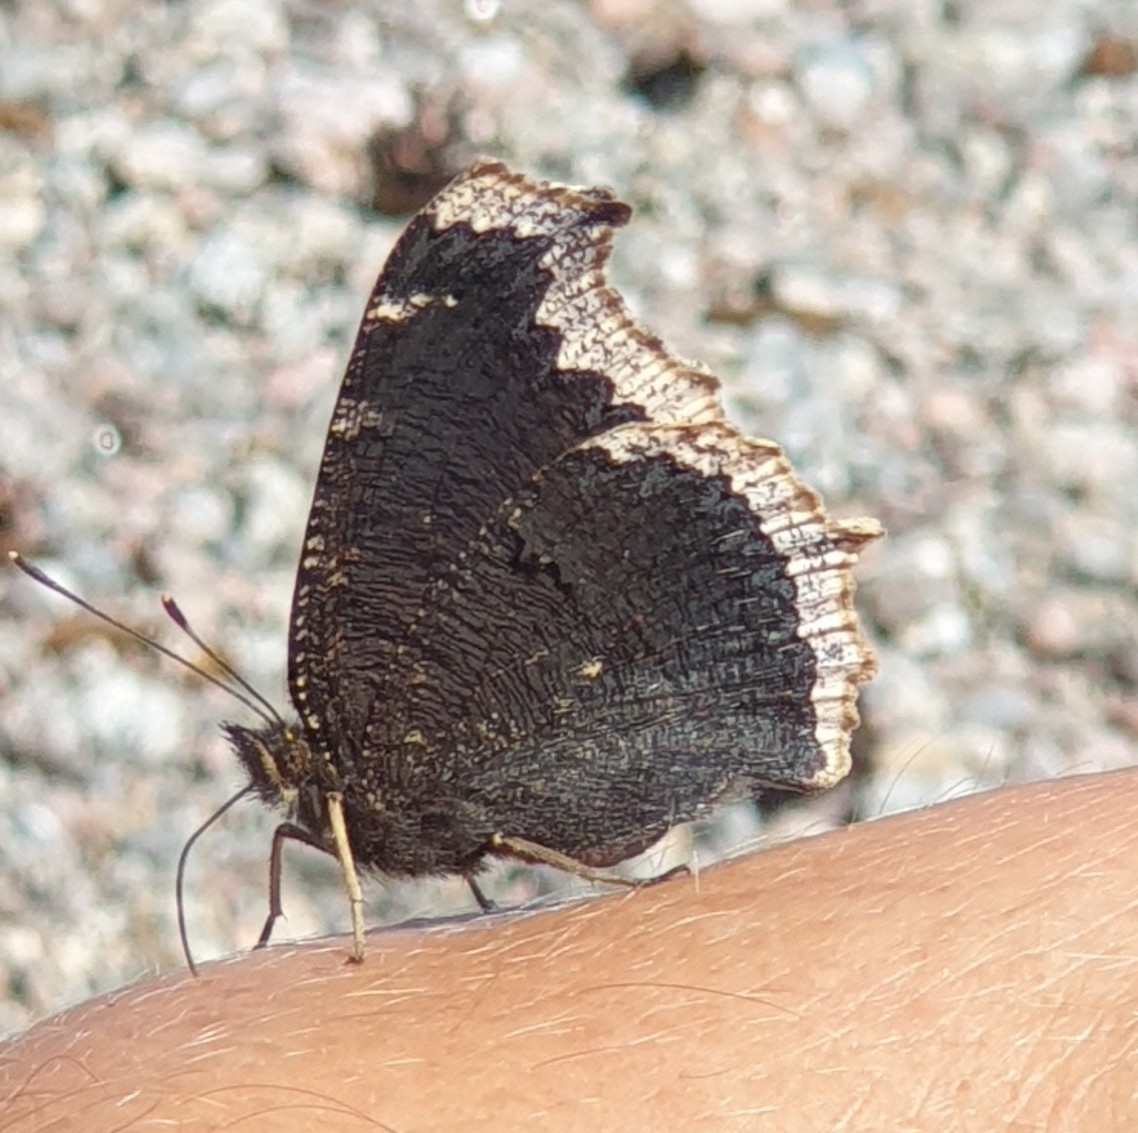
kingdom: Animalia
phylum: Arthropoda
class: Insecta
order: Lepidoptera
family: Nymphalidae
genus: Nymphalis
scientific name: Nymphalis antiopa
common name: Camberwell beauty
